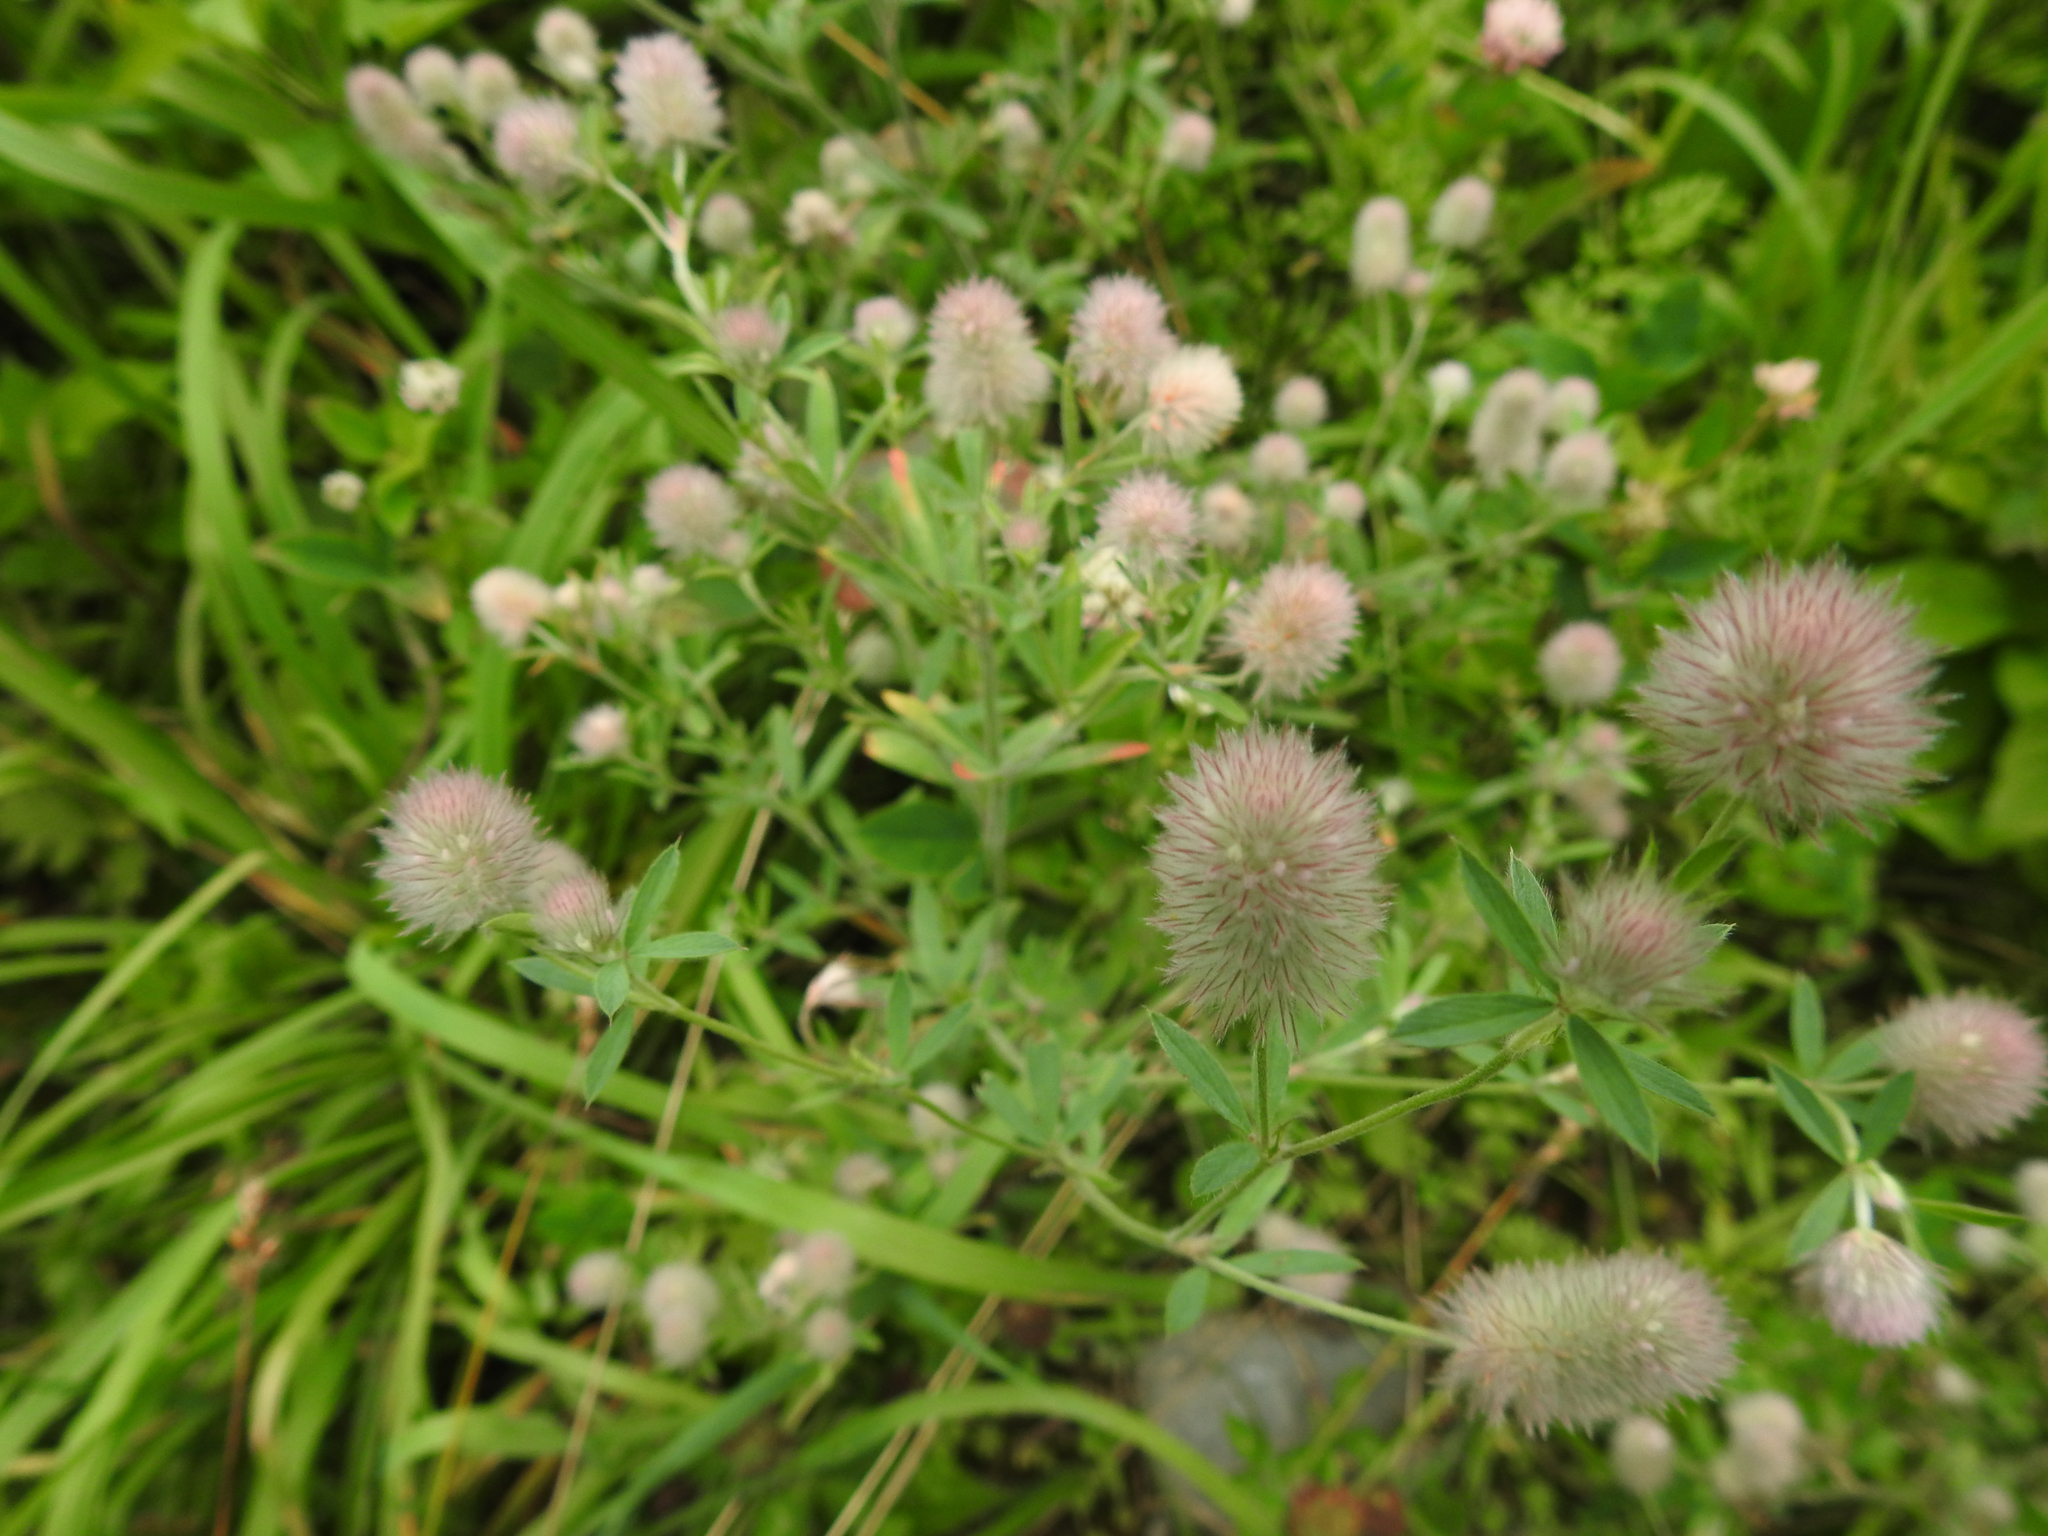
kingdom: Plantae
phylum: Tracheophyta
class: Magnoliopsida
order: Fabales
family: Fabaceae
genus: Trifolium
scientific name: Trifolium arvense
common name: Hare's-foot clover
